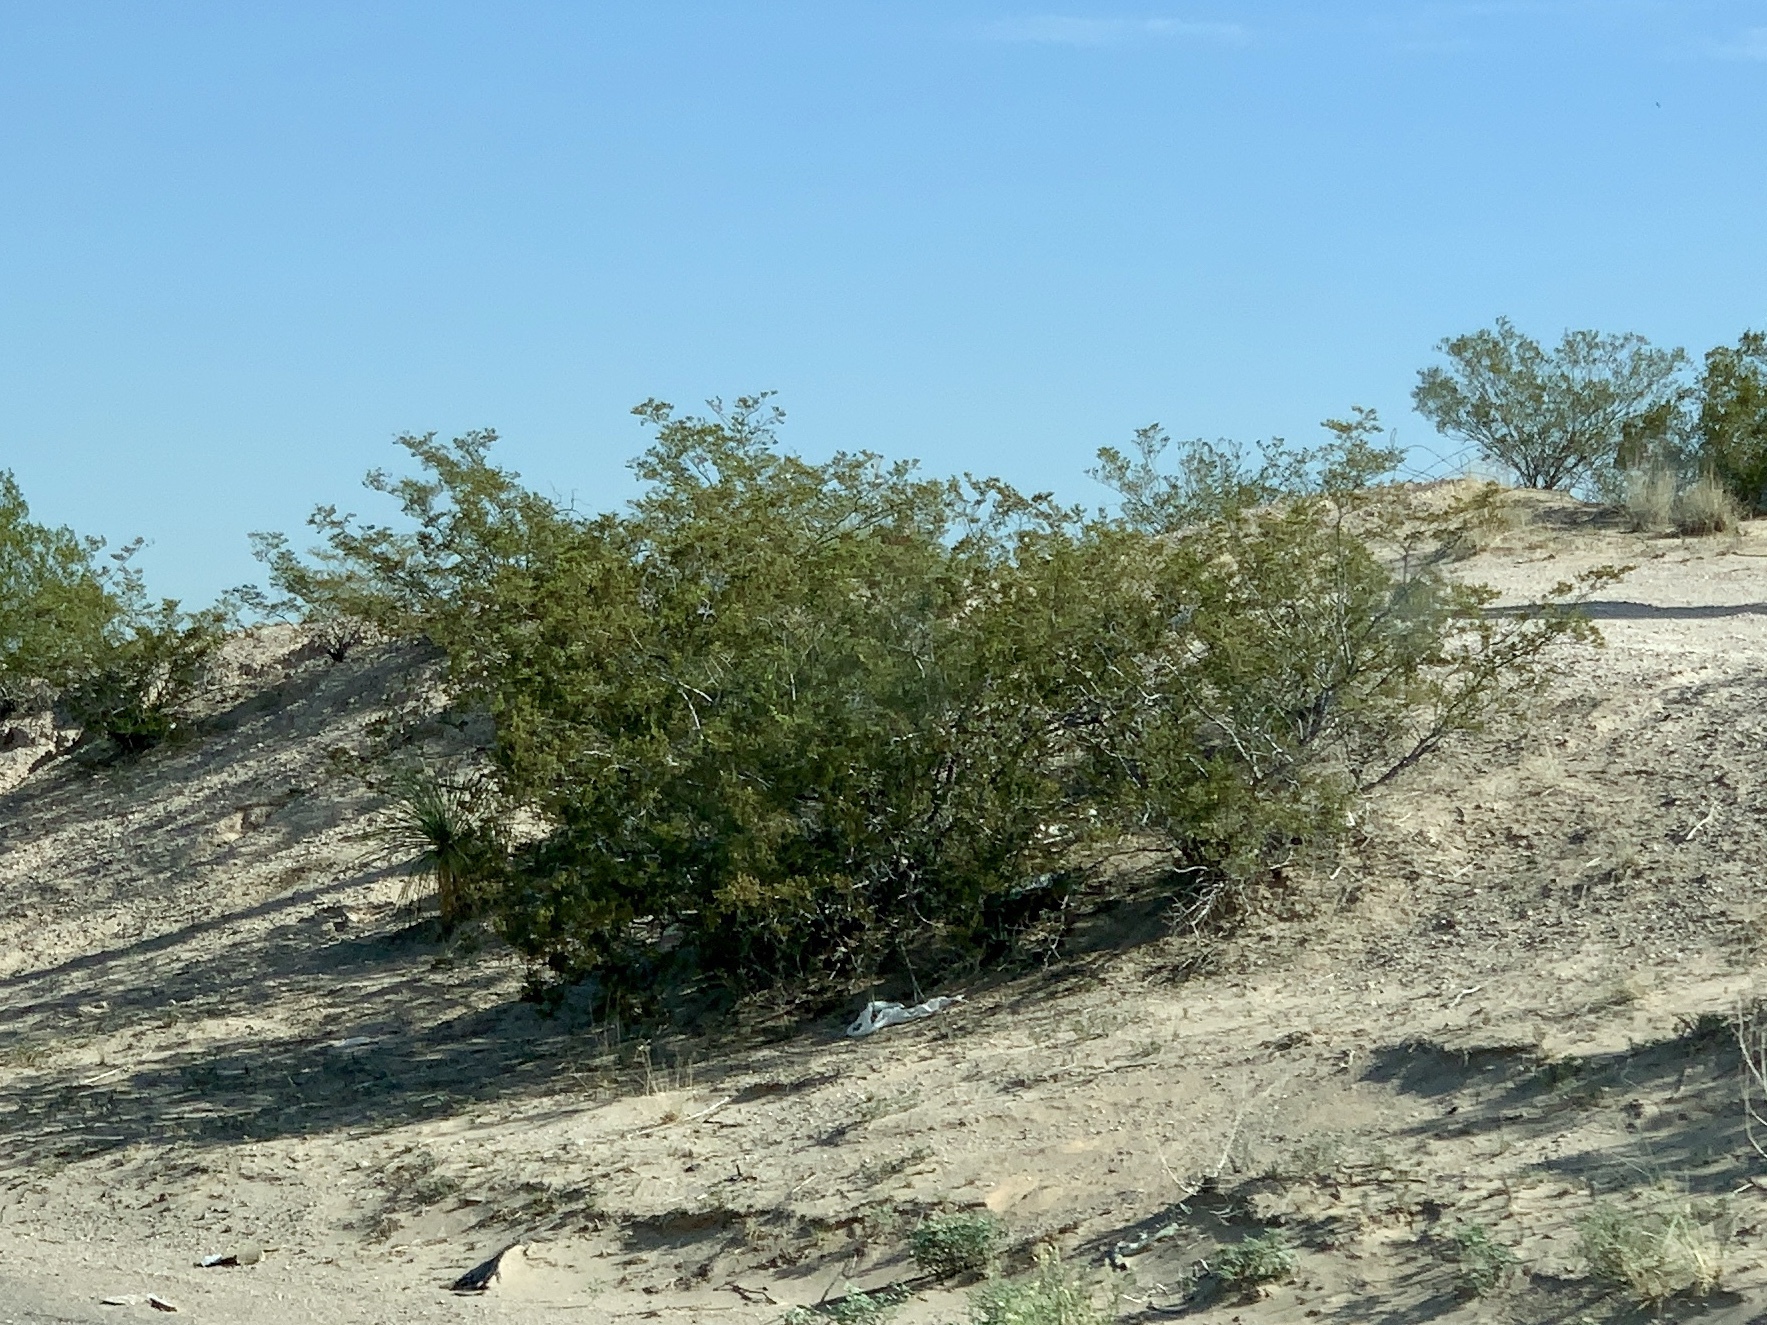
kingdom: Plantae
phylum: Tracheophyta
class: Magnoliopsida
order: Zygophyllales
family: Zygophyllaceae
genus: Larrea
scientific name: Larrea tridentata
